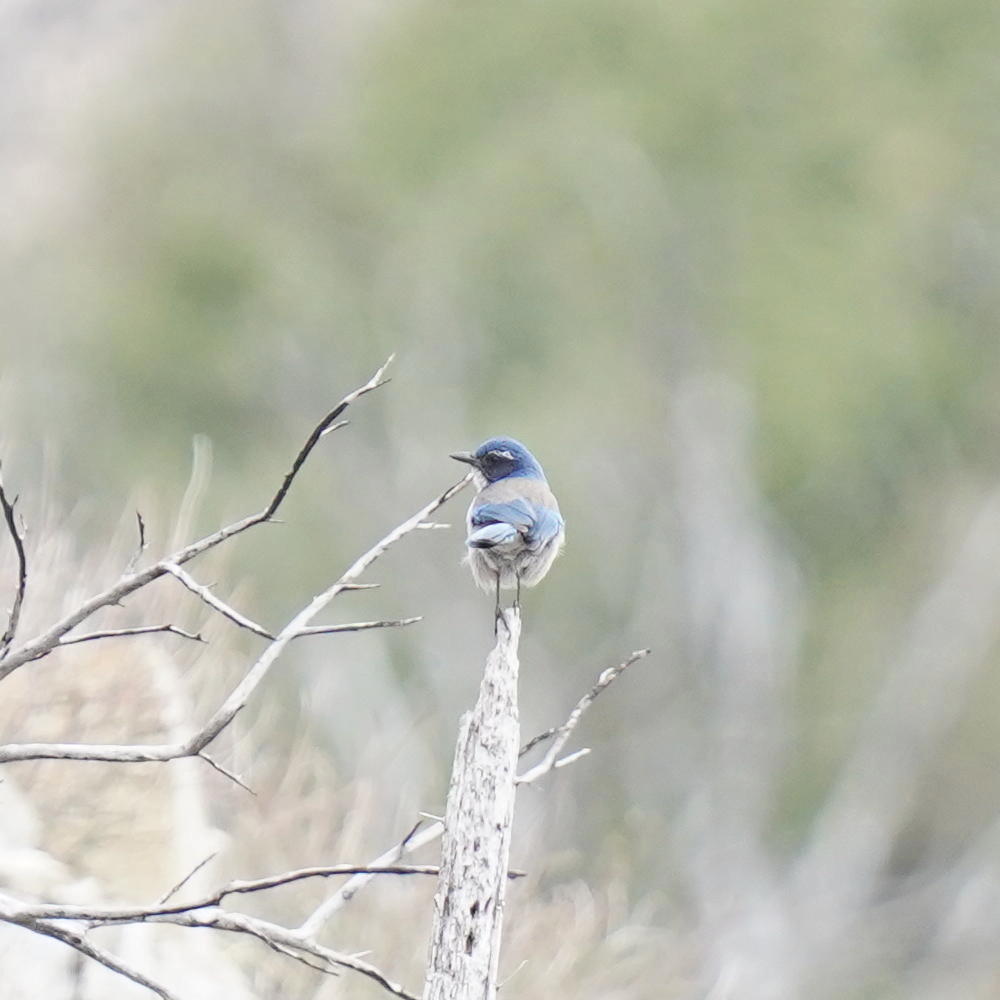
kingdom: Animalia
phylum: Chordata
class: Aves
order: Passeriformes
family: Corvidae
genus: Aphelocoma
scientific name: Aphelocoma californica
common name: California scrub-jay
